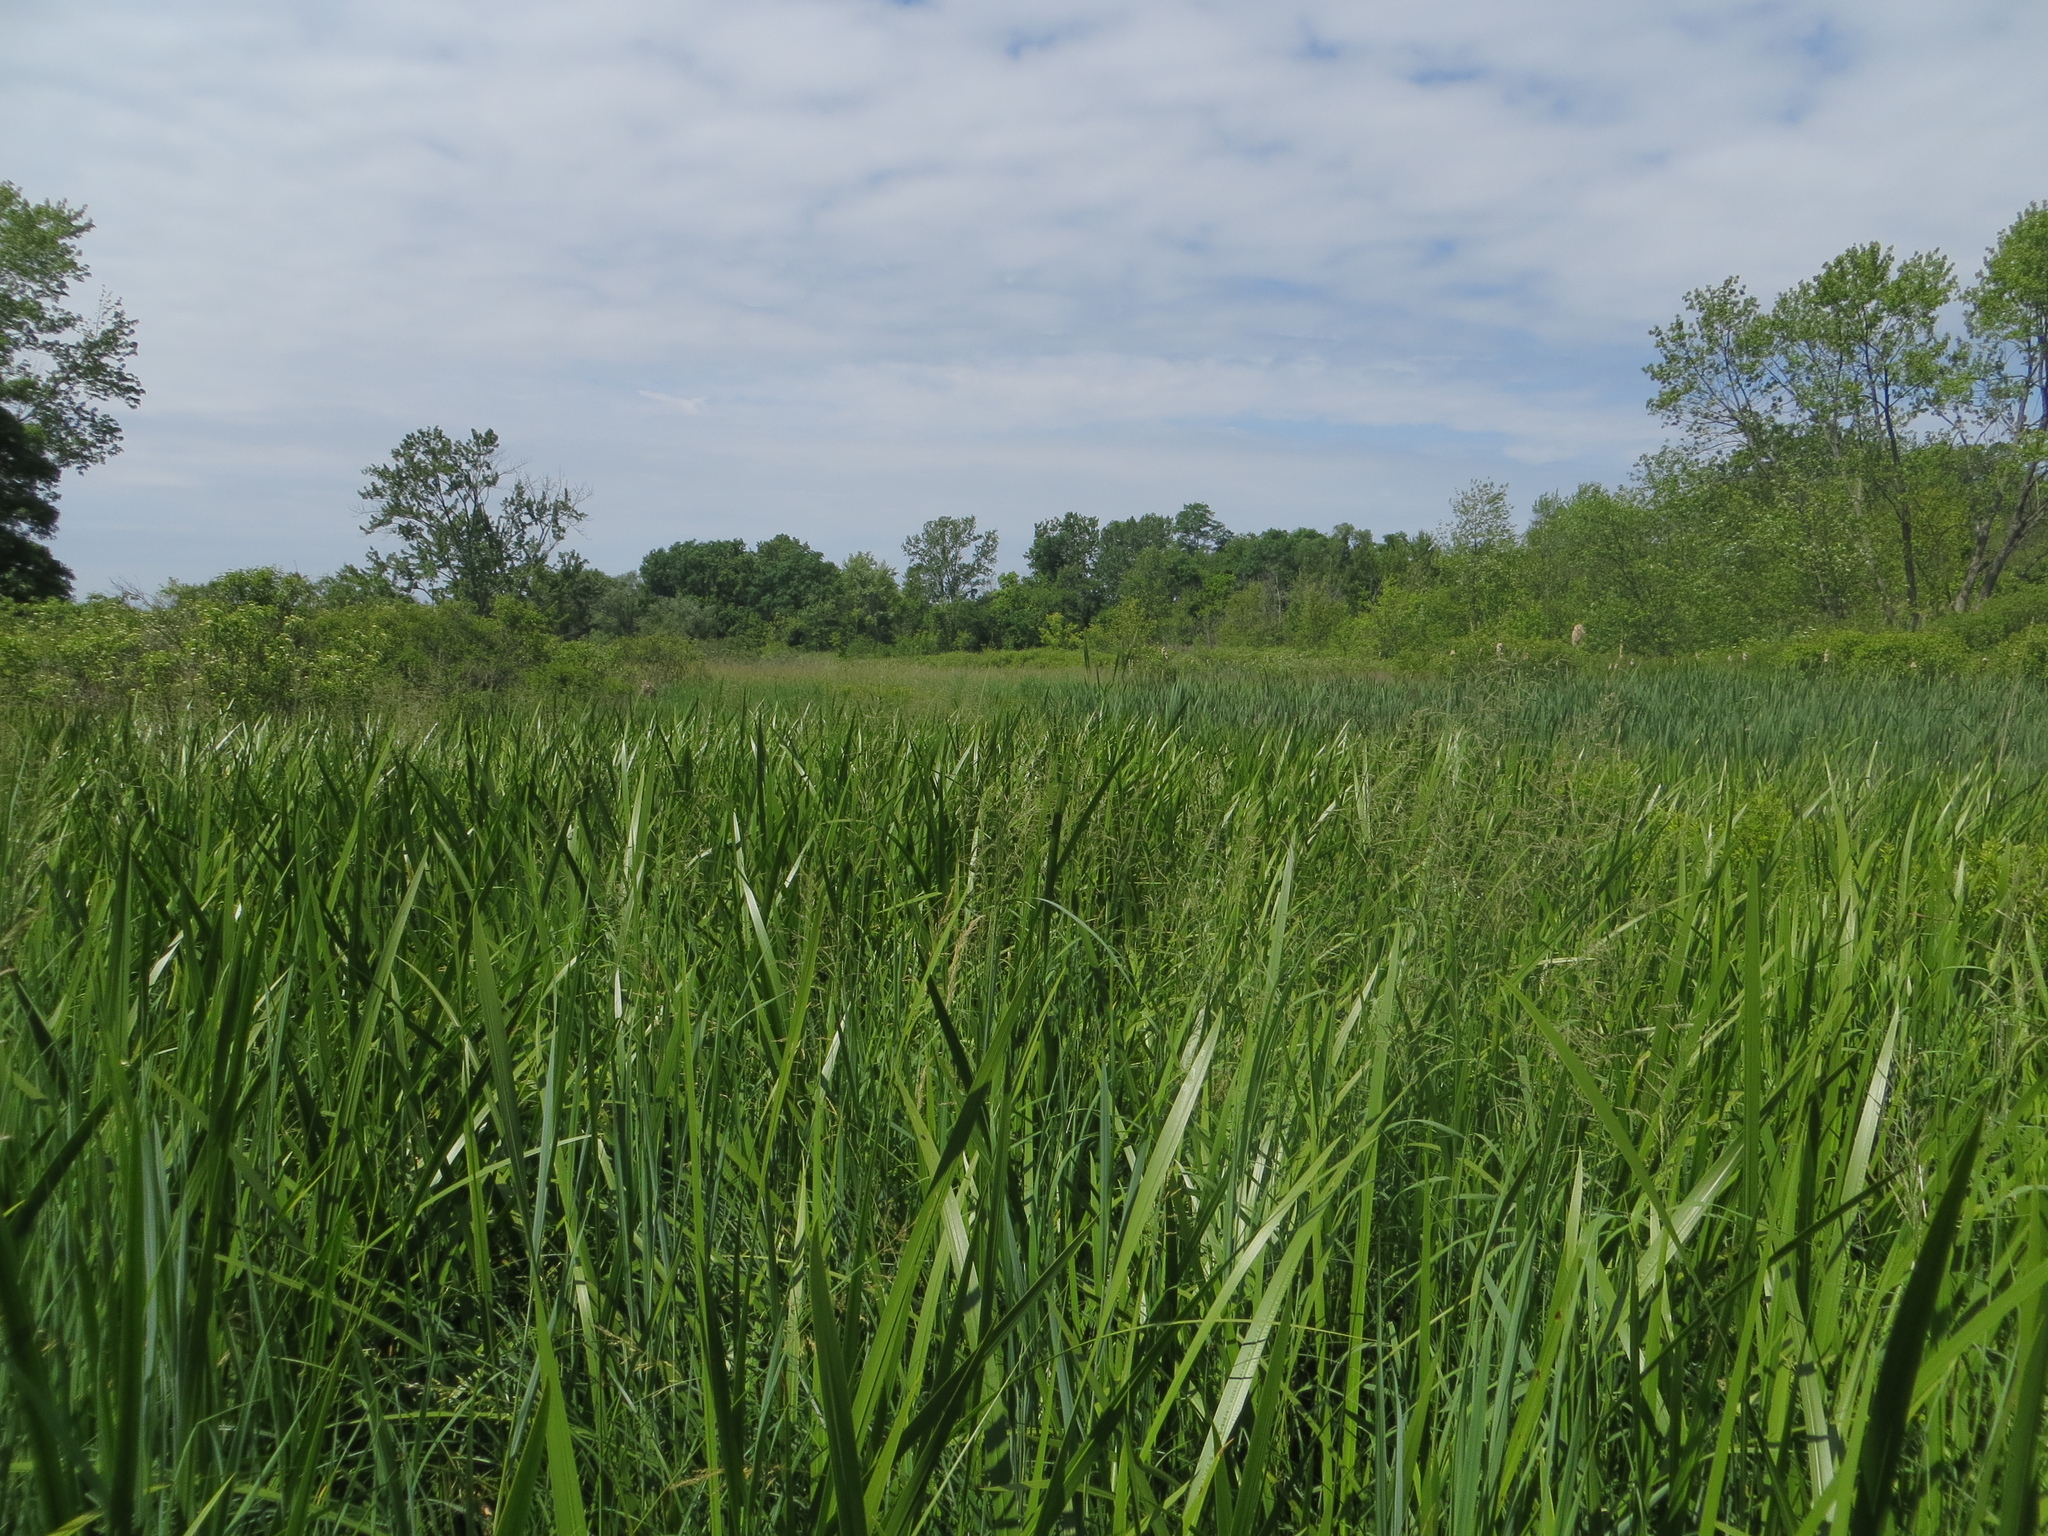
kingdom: Plantae
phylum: Tracheophyta
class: Liliopsida
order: Acorales
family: Acoraceae
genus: Acorus
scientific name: Acorus calamus
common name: Sweet-flag
